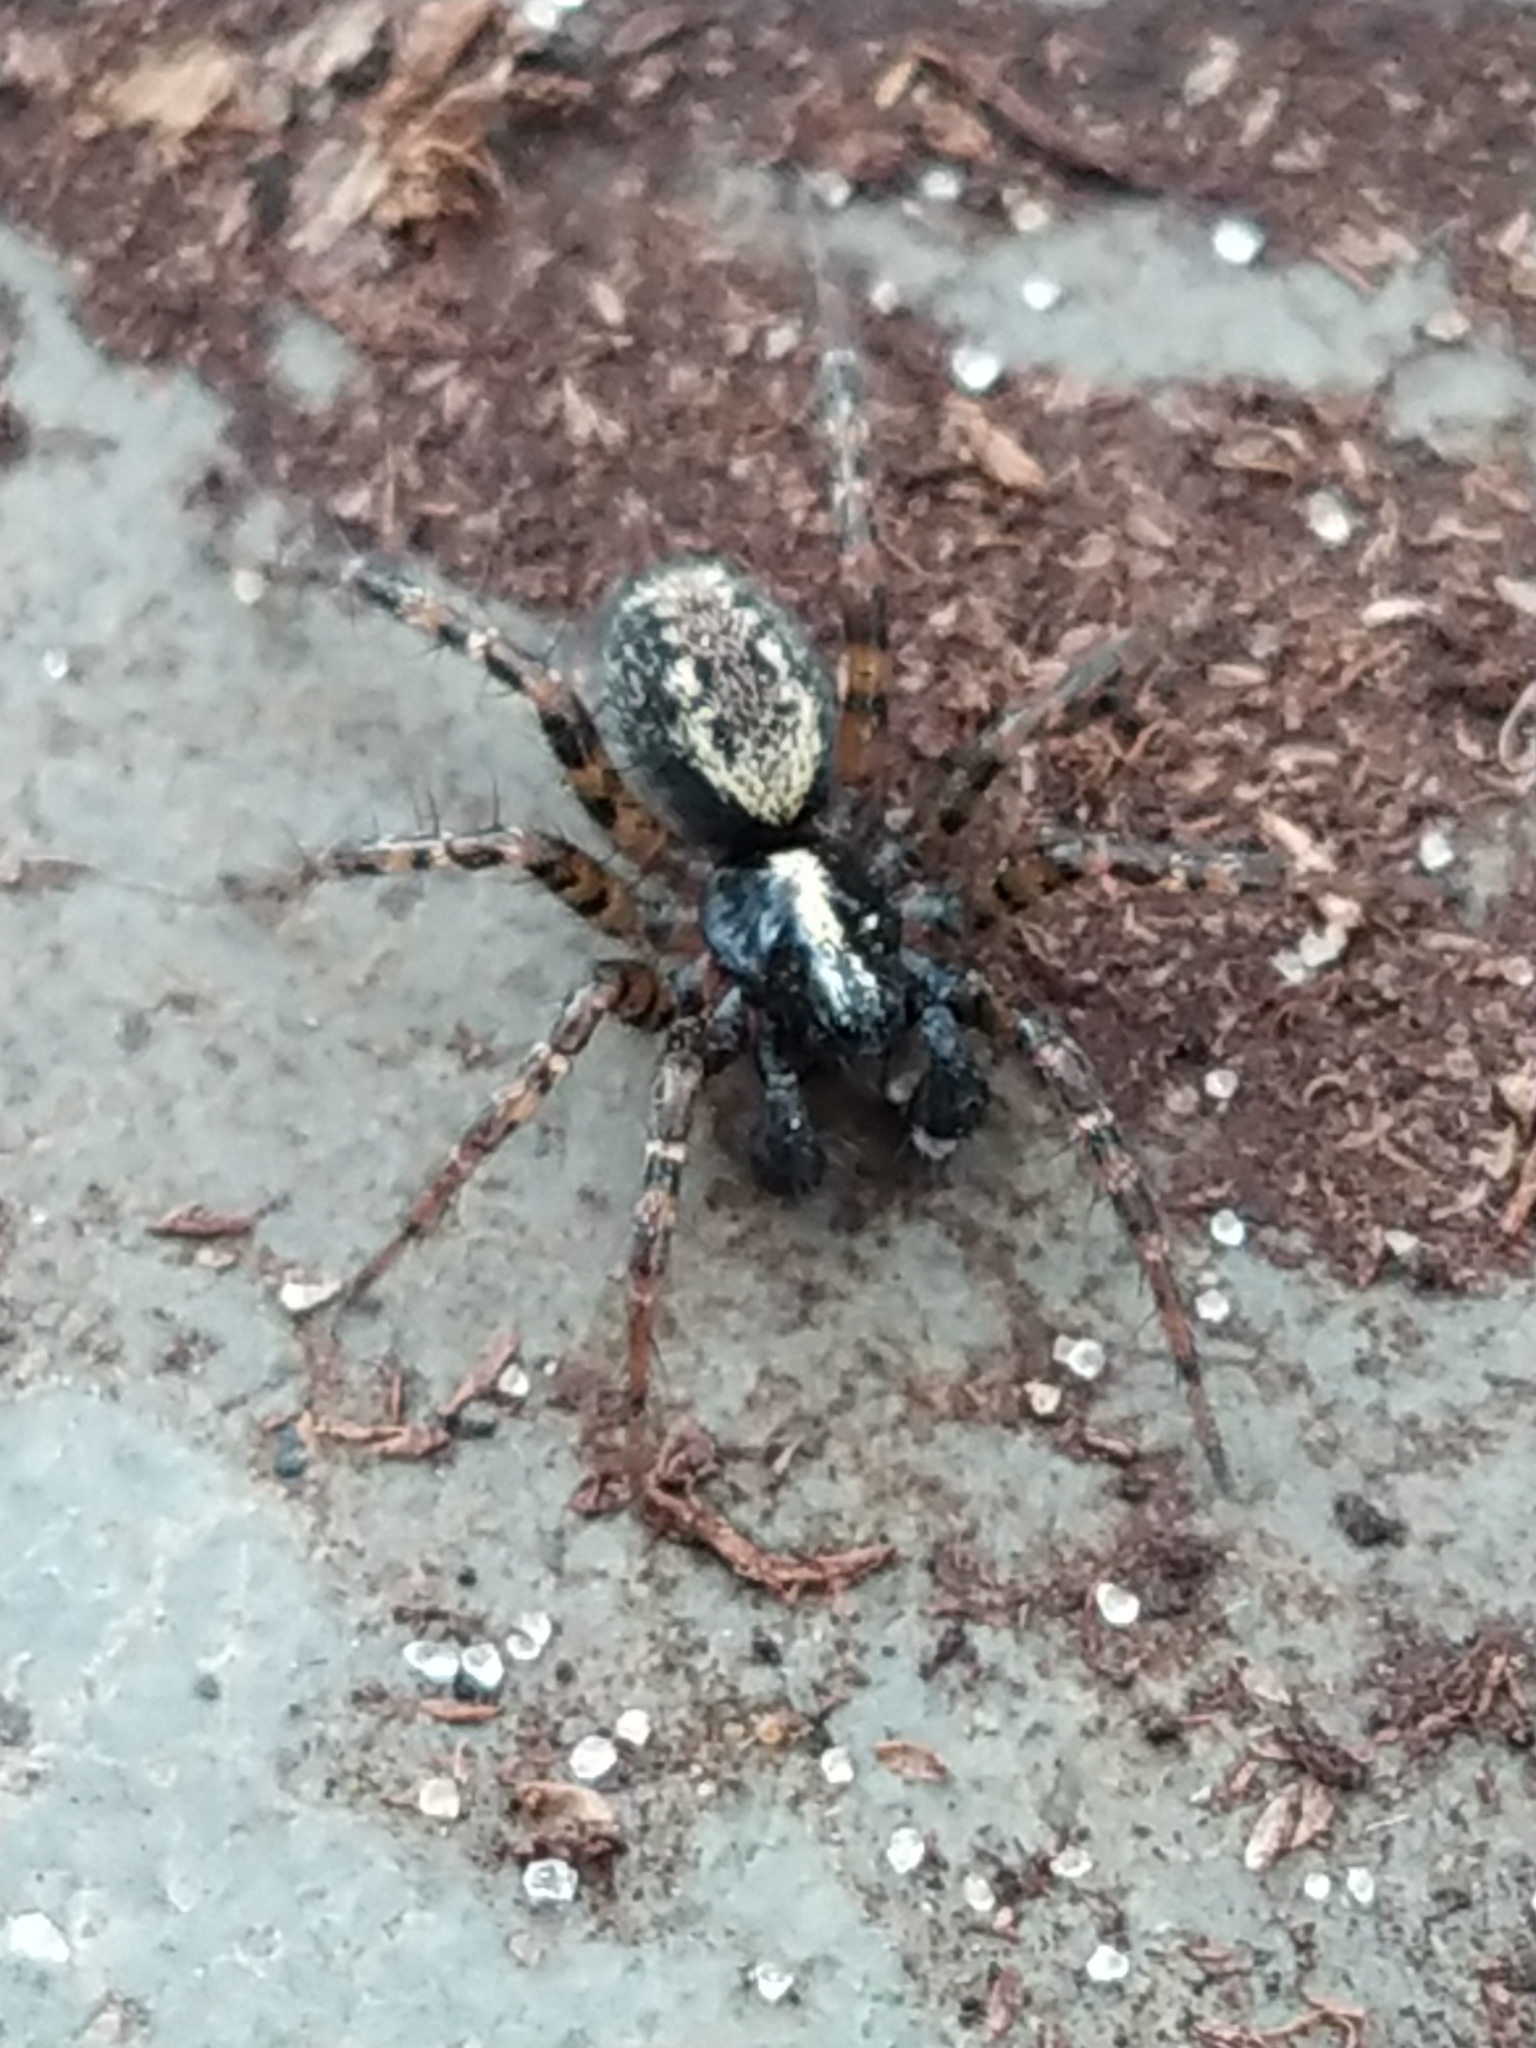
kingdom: Animalia
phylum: Arthropoda
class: Arachnida
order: Araneae
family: Agelenidae
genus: Textrix
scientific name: Textrix denticulata
